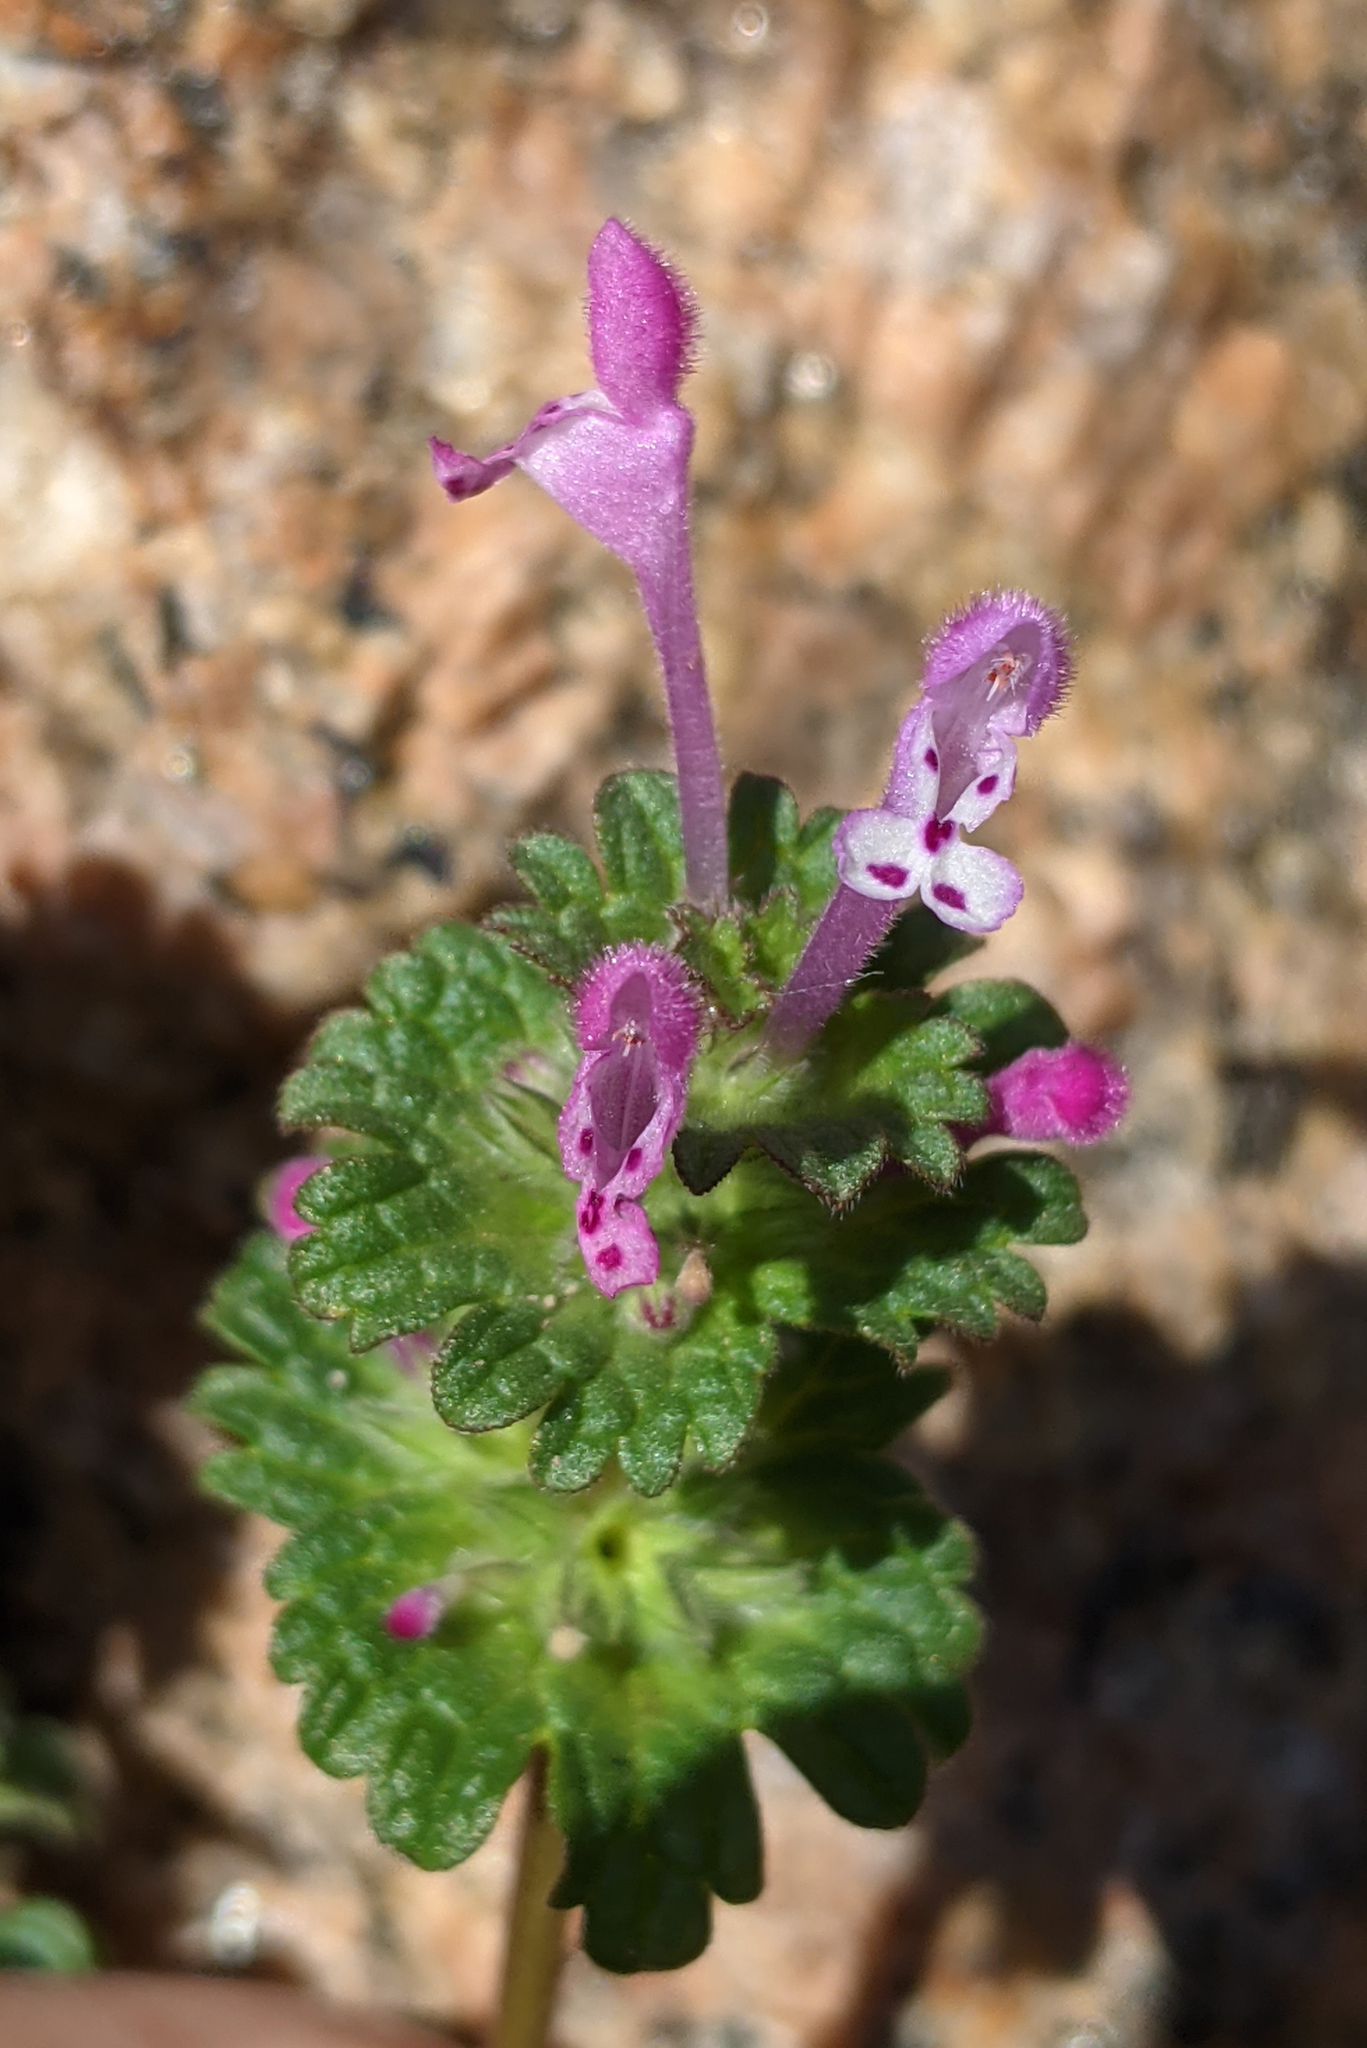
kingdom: Plantae
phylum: Tracheophyta
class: Magnoliopsida
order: Lamiales
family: Lamiaceae
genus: Lamium
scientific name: Lamium amplexicaule
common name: Henbit dead-nettle
